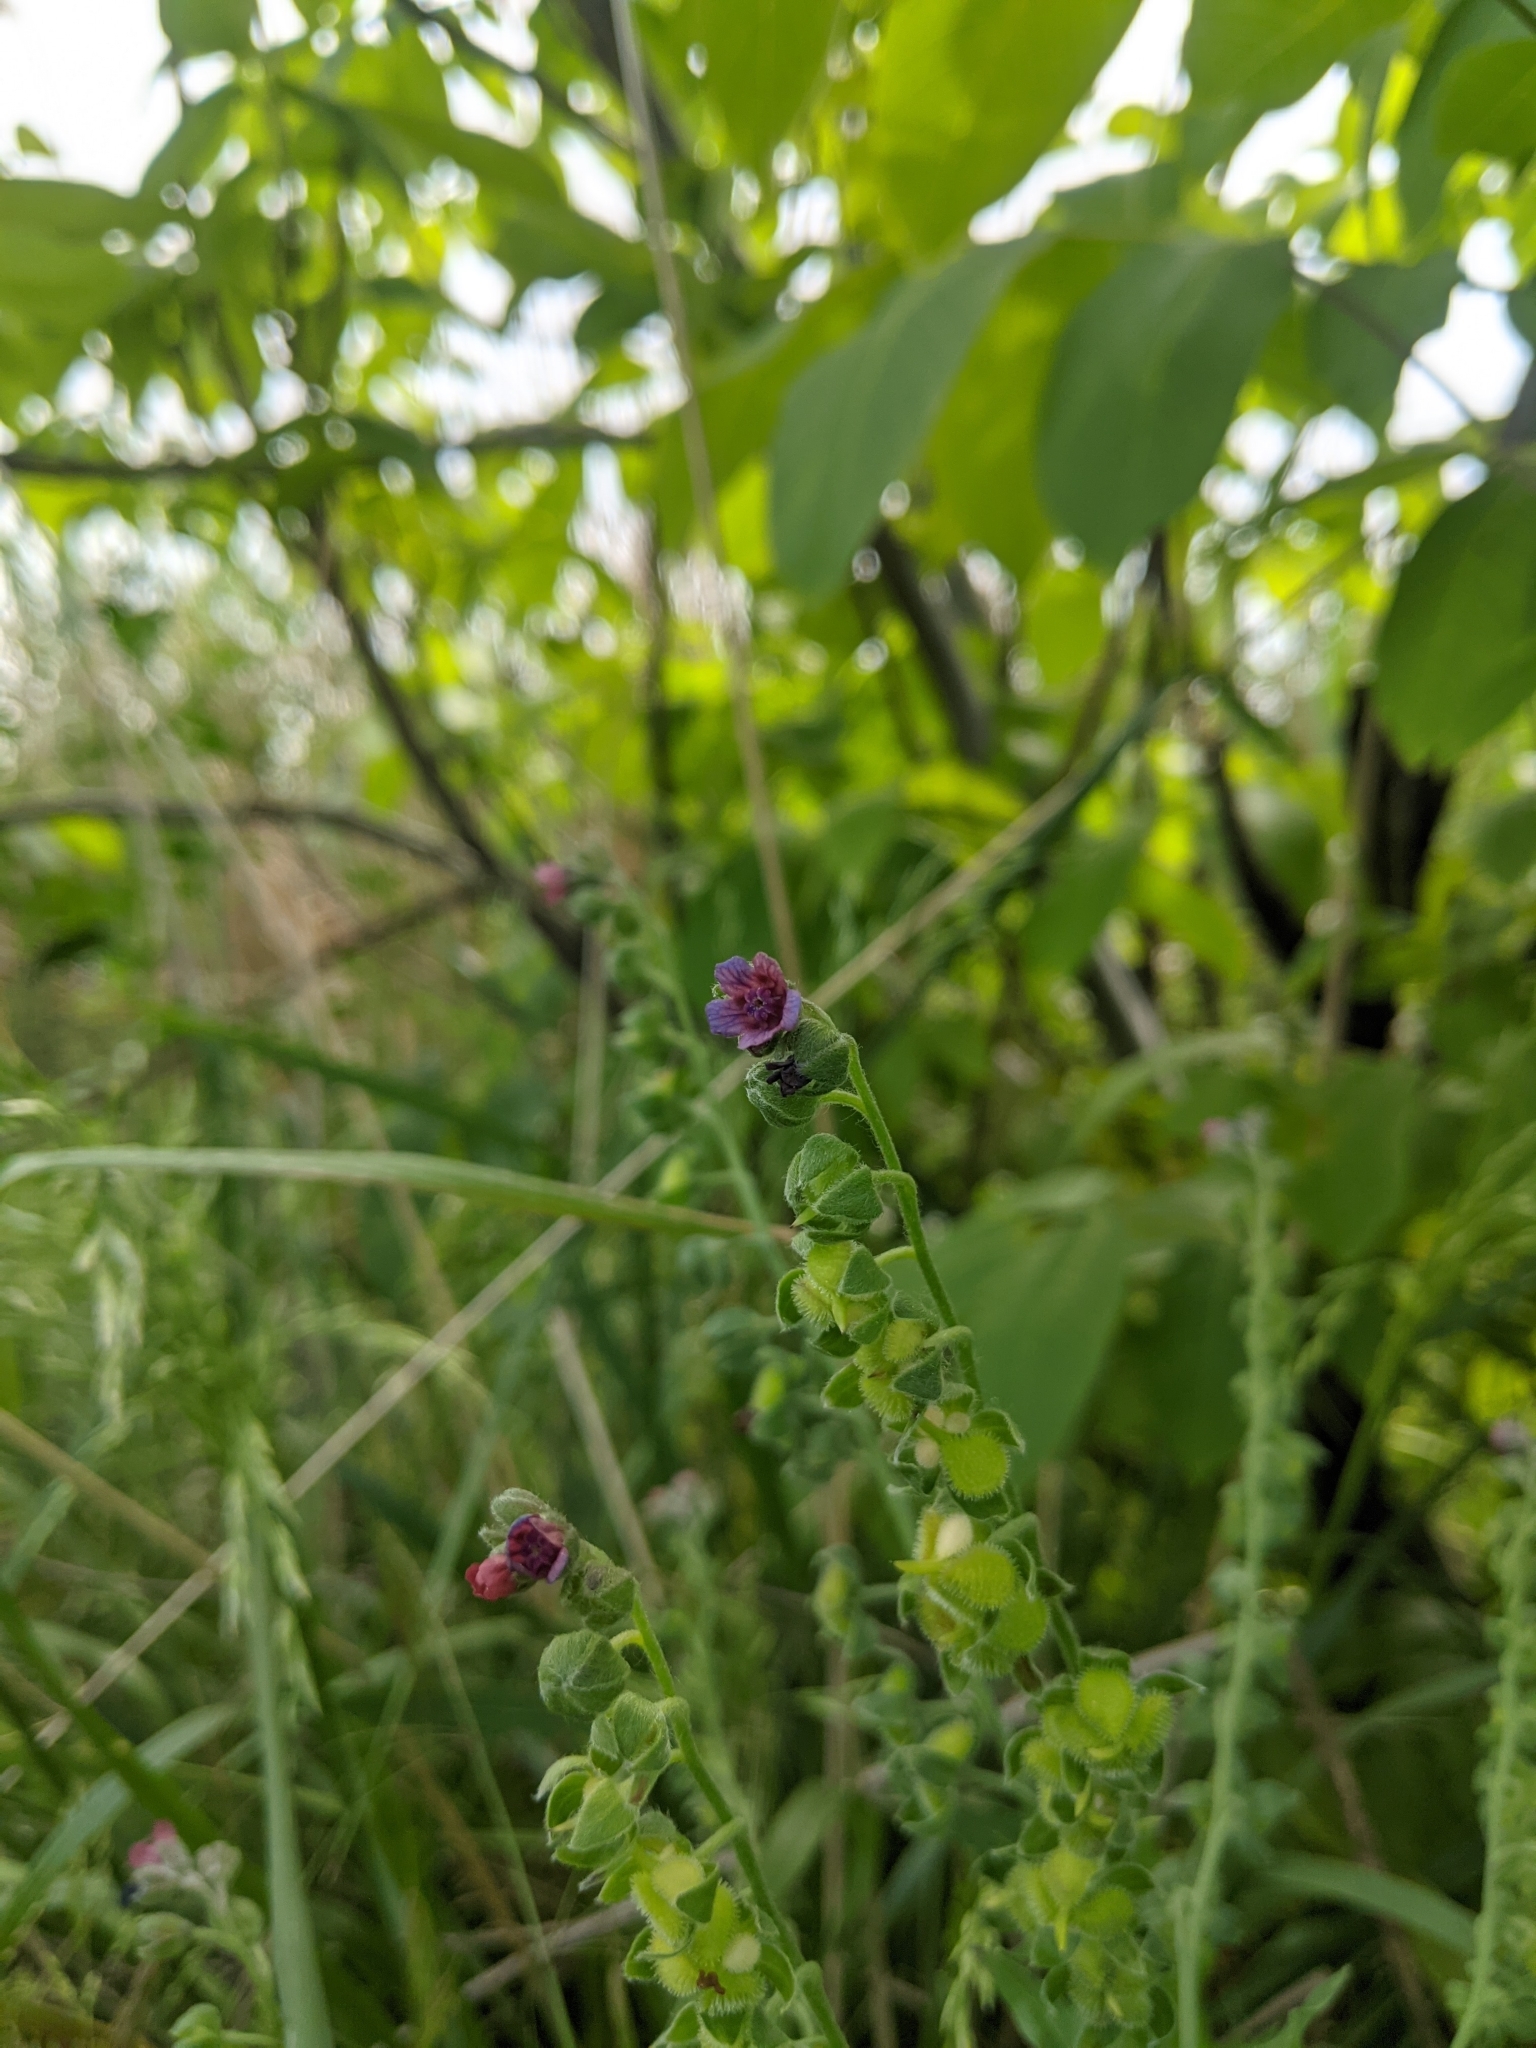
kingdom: Plantae
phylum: Tracheophyta
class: Magnoliopsida
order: Boraginales
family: Boraginaceae
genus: Cynoglossum
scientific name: Cynoglossum officinale
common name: Hound's-tongue
